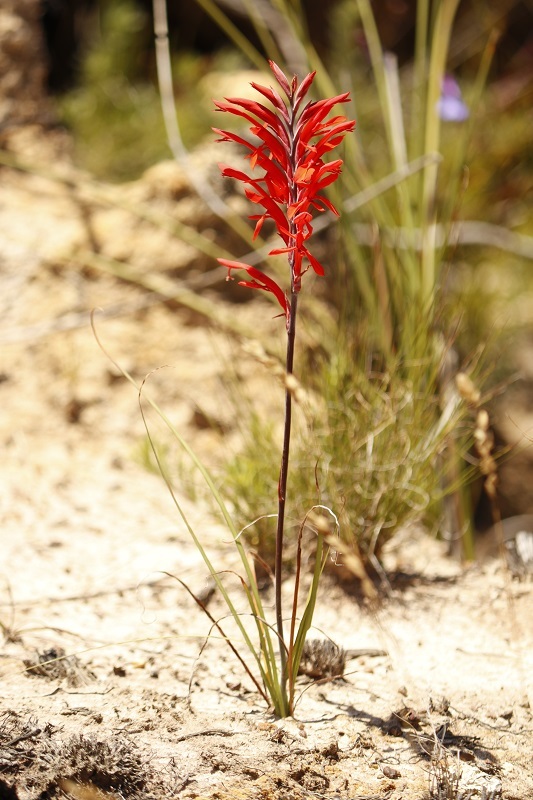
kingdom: Plantae
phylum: Tracheophyta
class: Liliopsida
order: Asparagales
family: Iridaceae
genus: Tritoniopsis
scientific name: Tritoniopsis caffra
